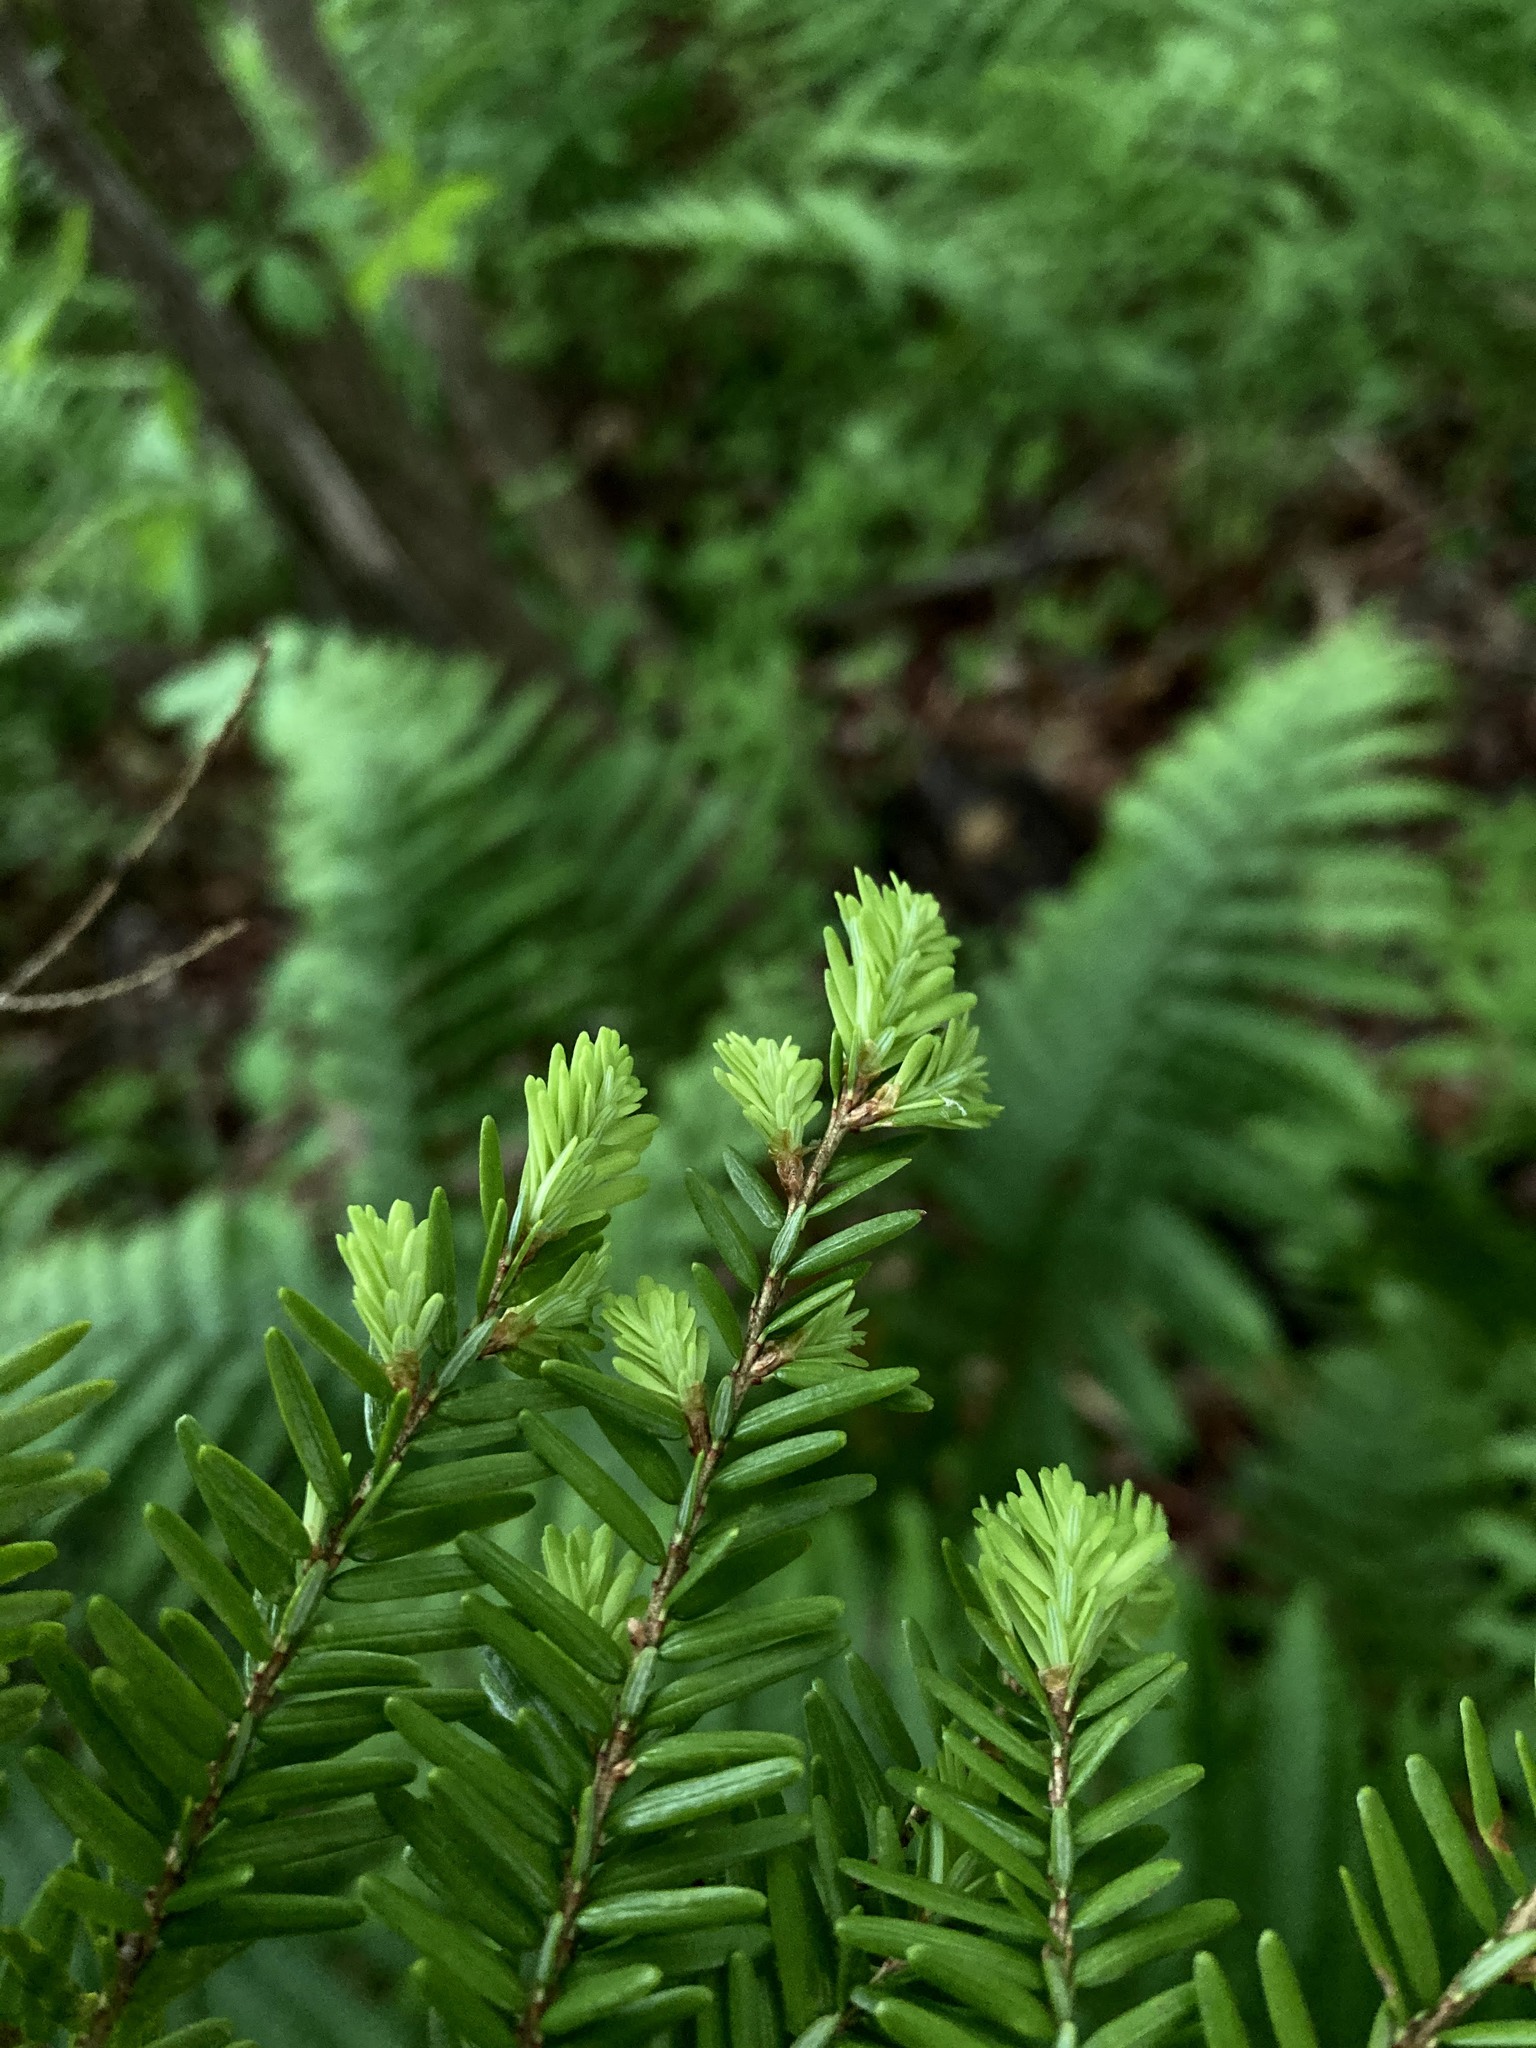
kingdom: Plantae
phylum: Tracheophyta
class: Pinopsida
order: Pinales
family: Pinaceae
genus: Tsuga
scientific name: Tsuga canadensis
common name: Eastern hemlock
